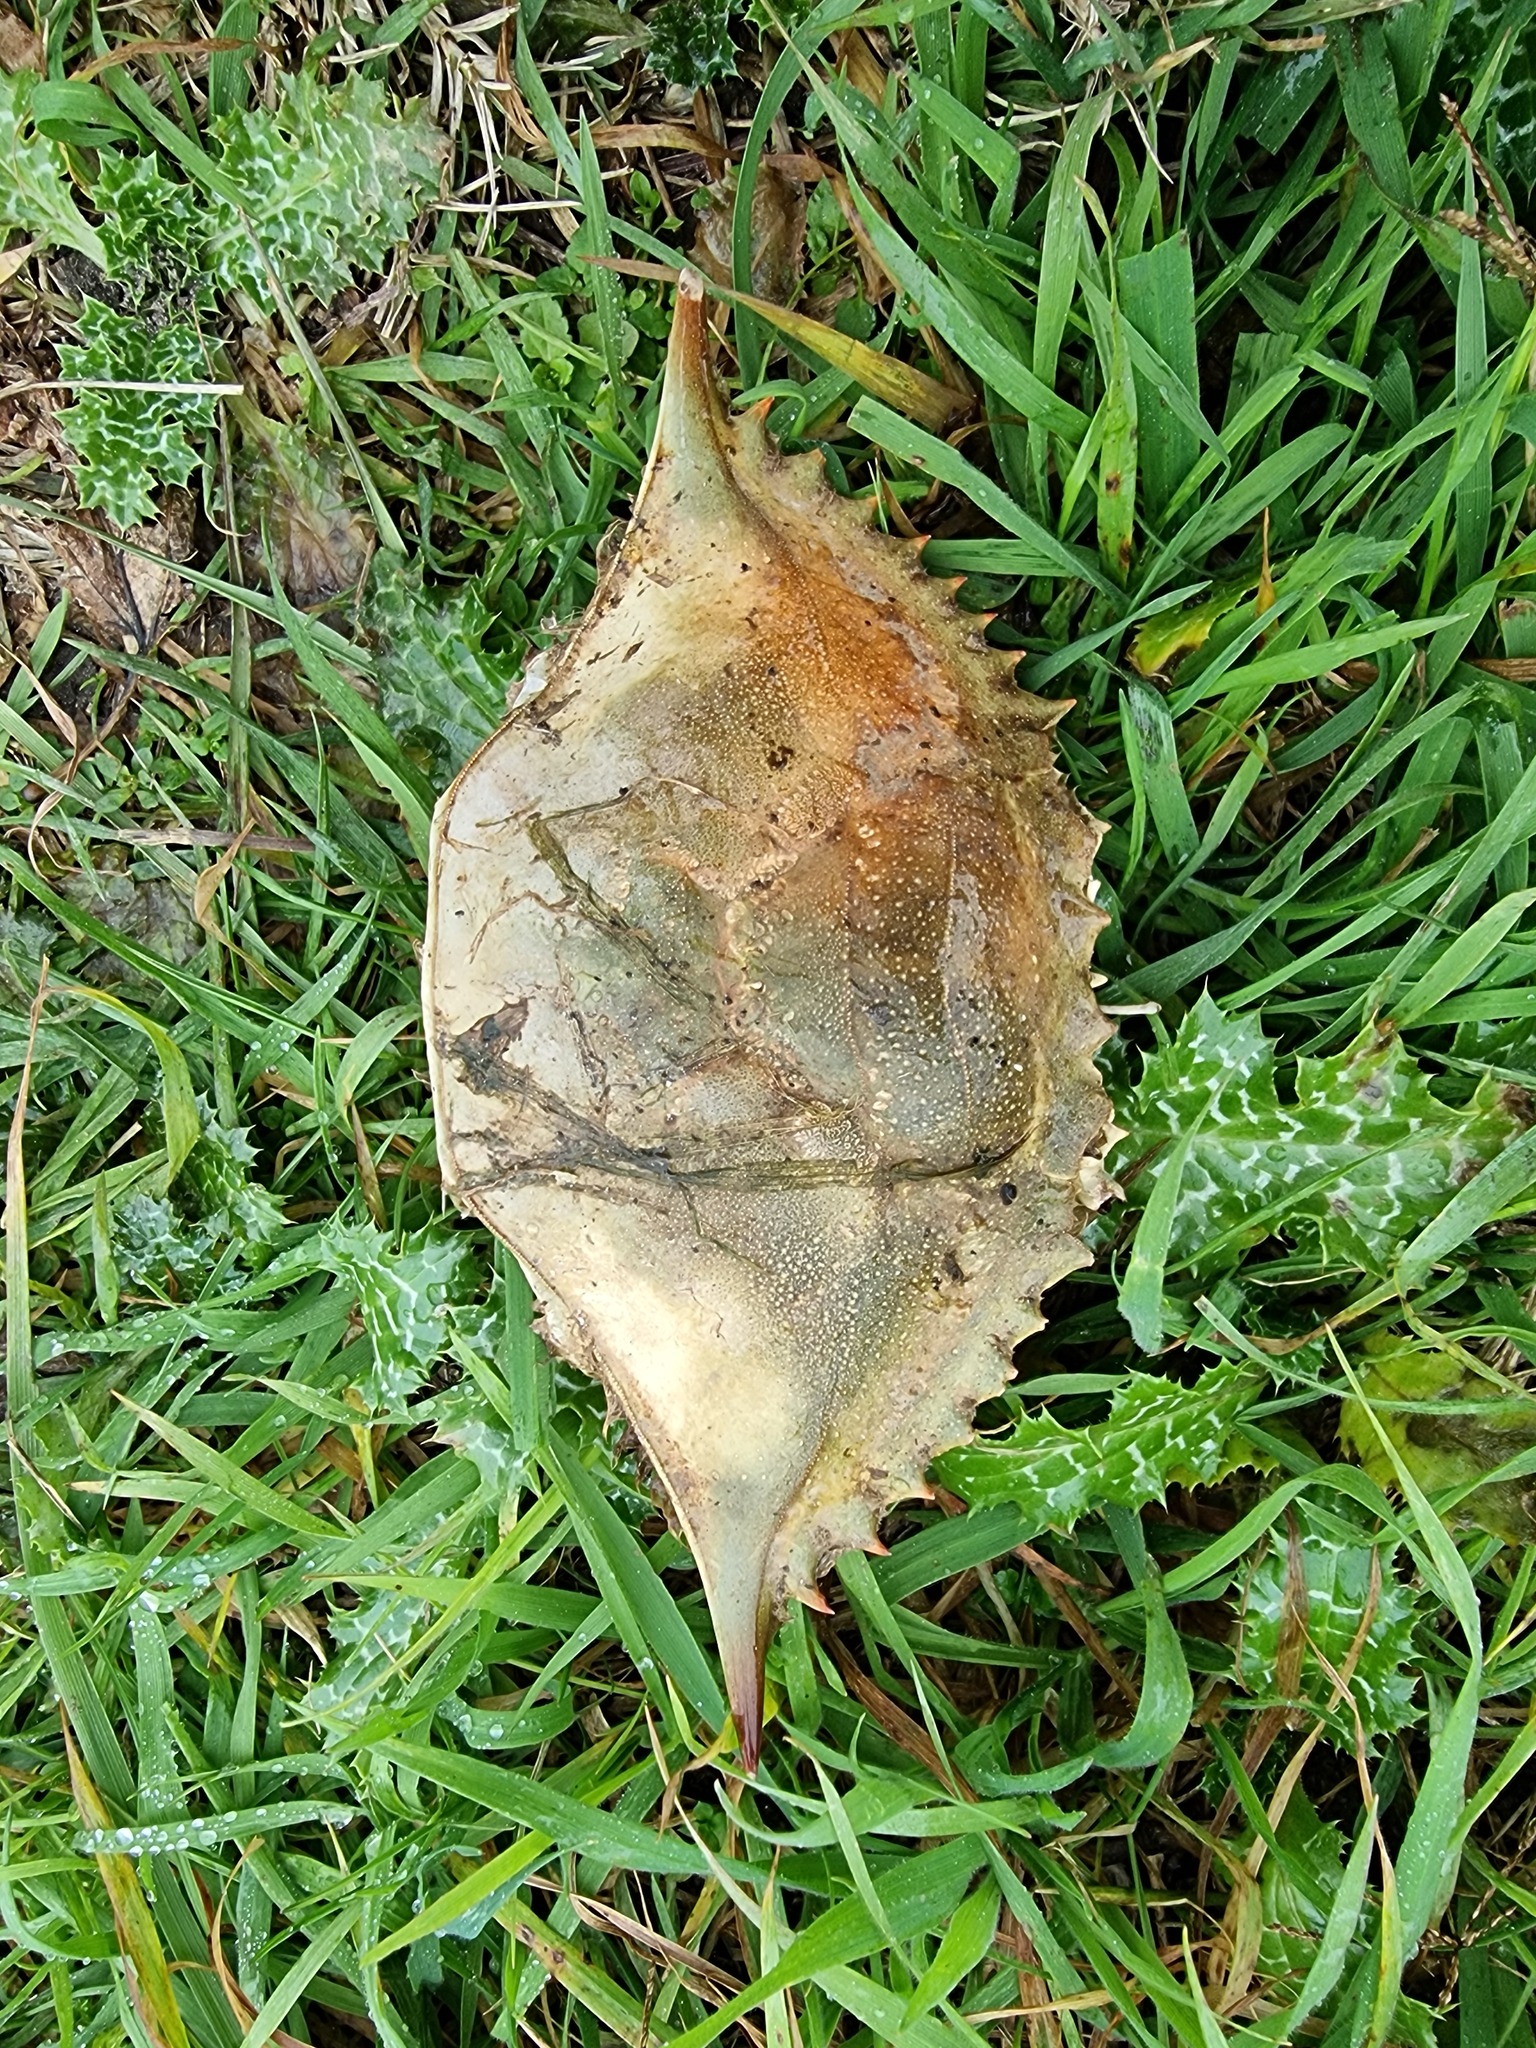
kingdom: Animalia
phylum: Arthropoda
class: Malacostraca
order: Decapoda
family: Portunidae
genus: Callinectes
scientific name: Callinectes sapidus
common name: Blue crab
